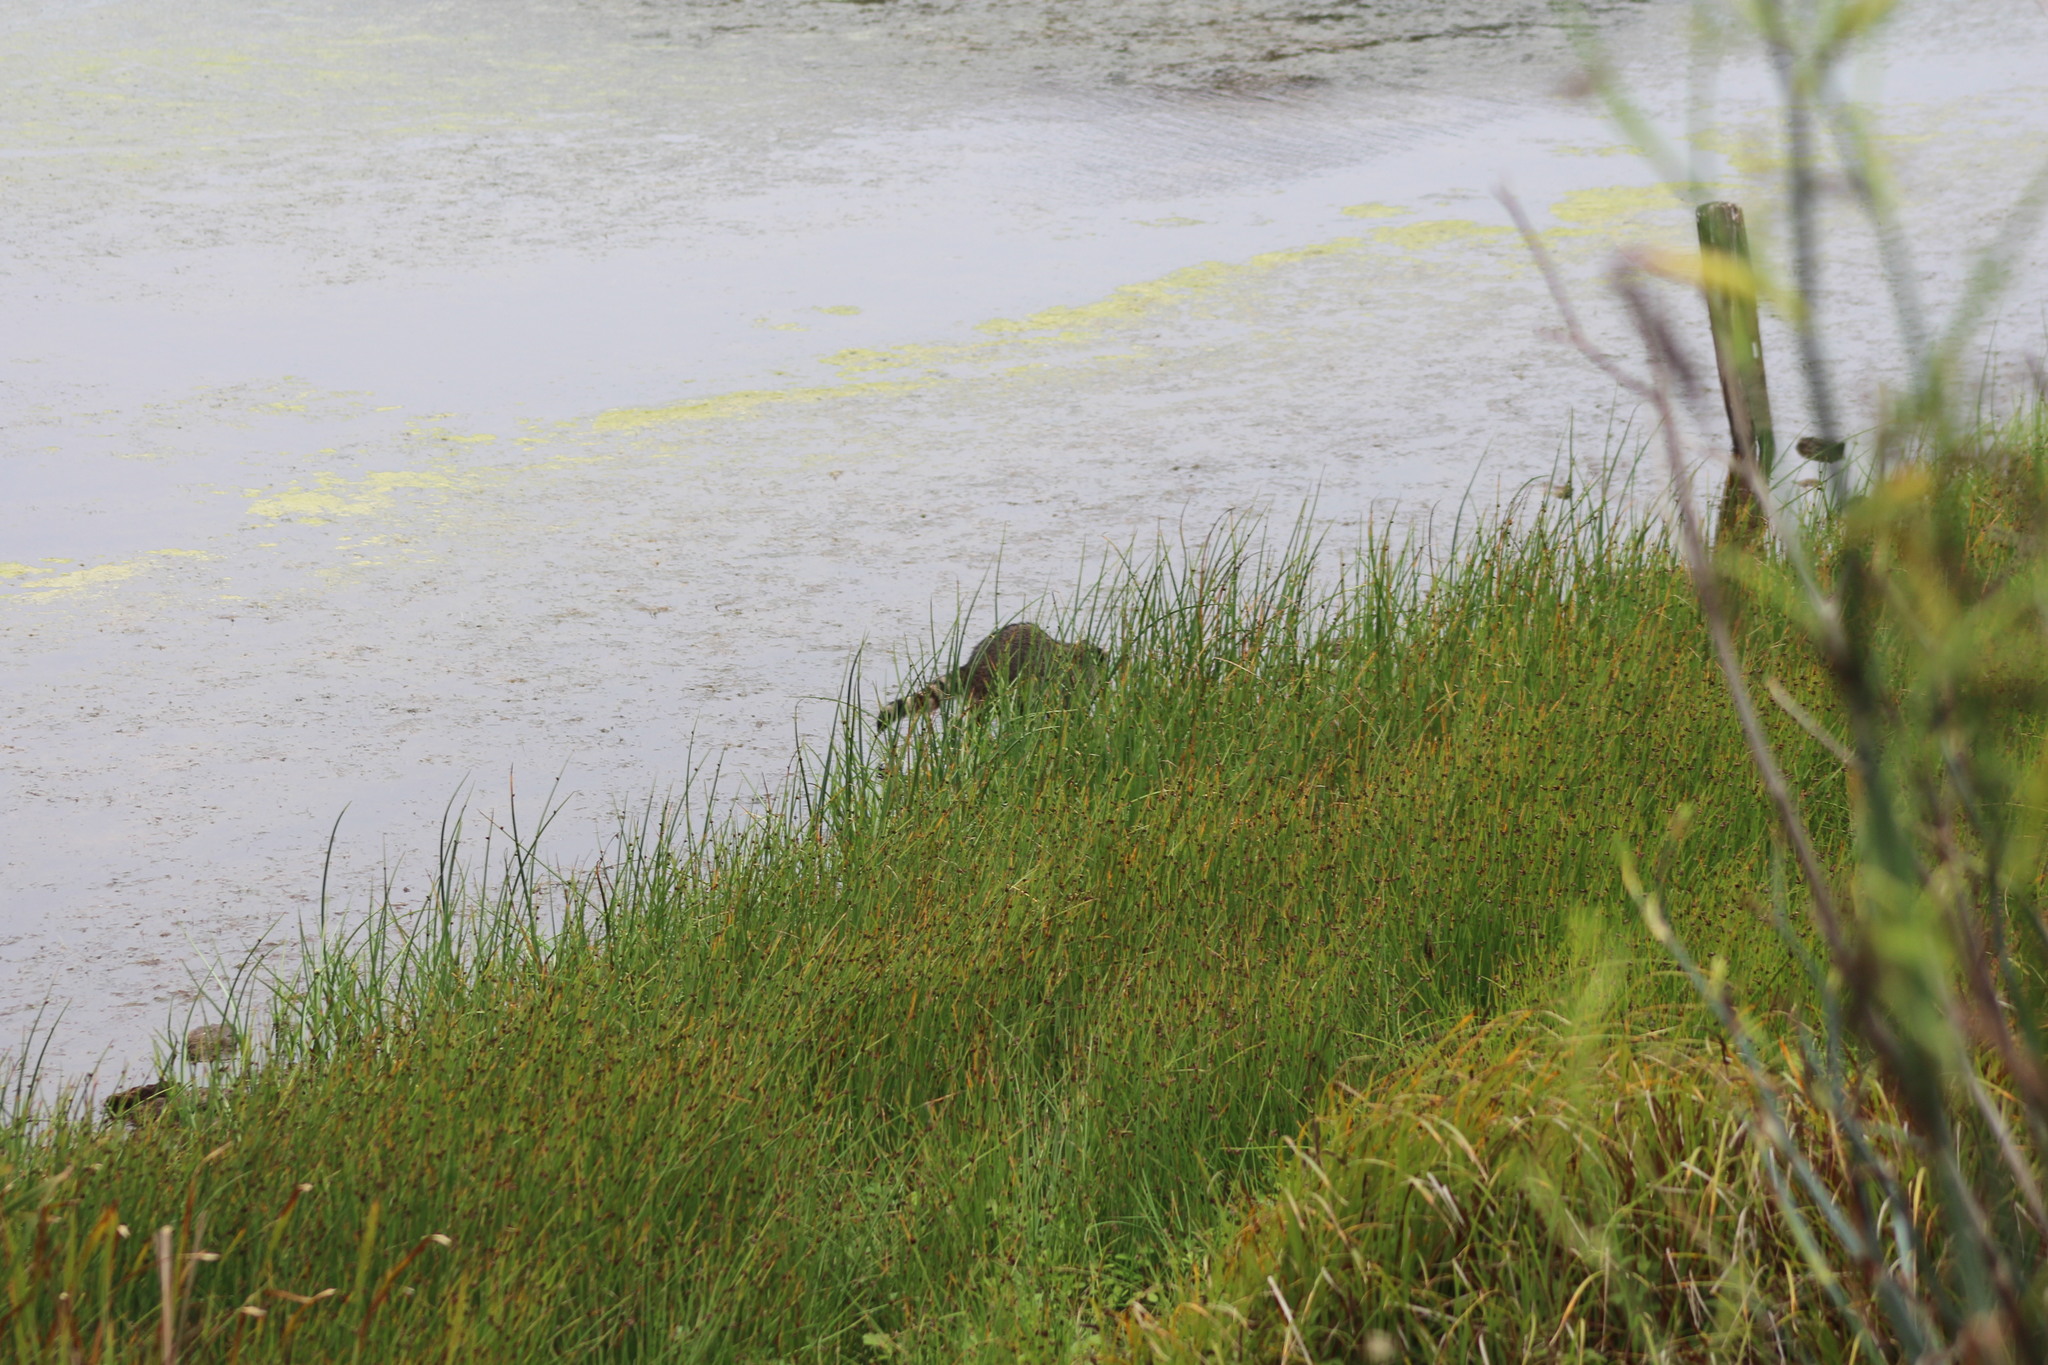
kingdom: Animalia
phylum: Chordata
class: Mammalia
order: Carnivora
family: Procyonidae
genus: Procyon
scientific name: Procyon lotor
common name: Raccoon
